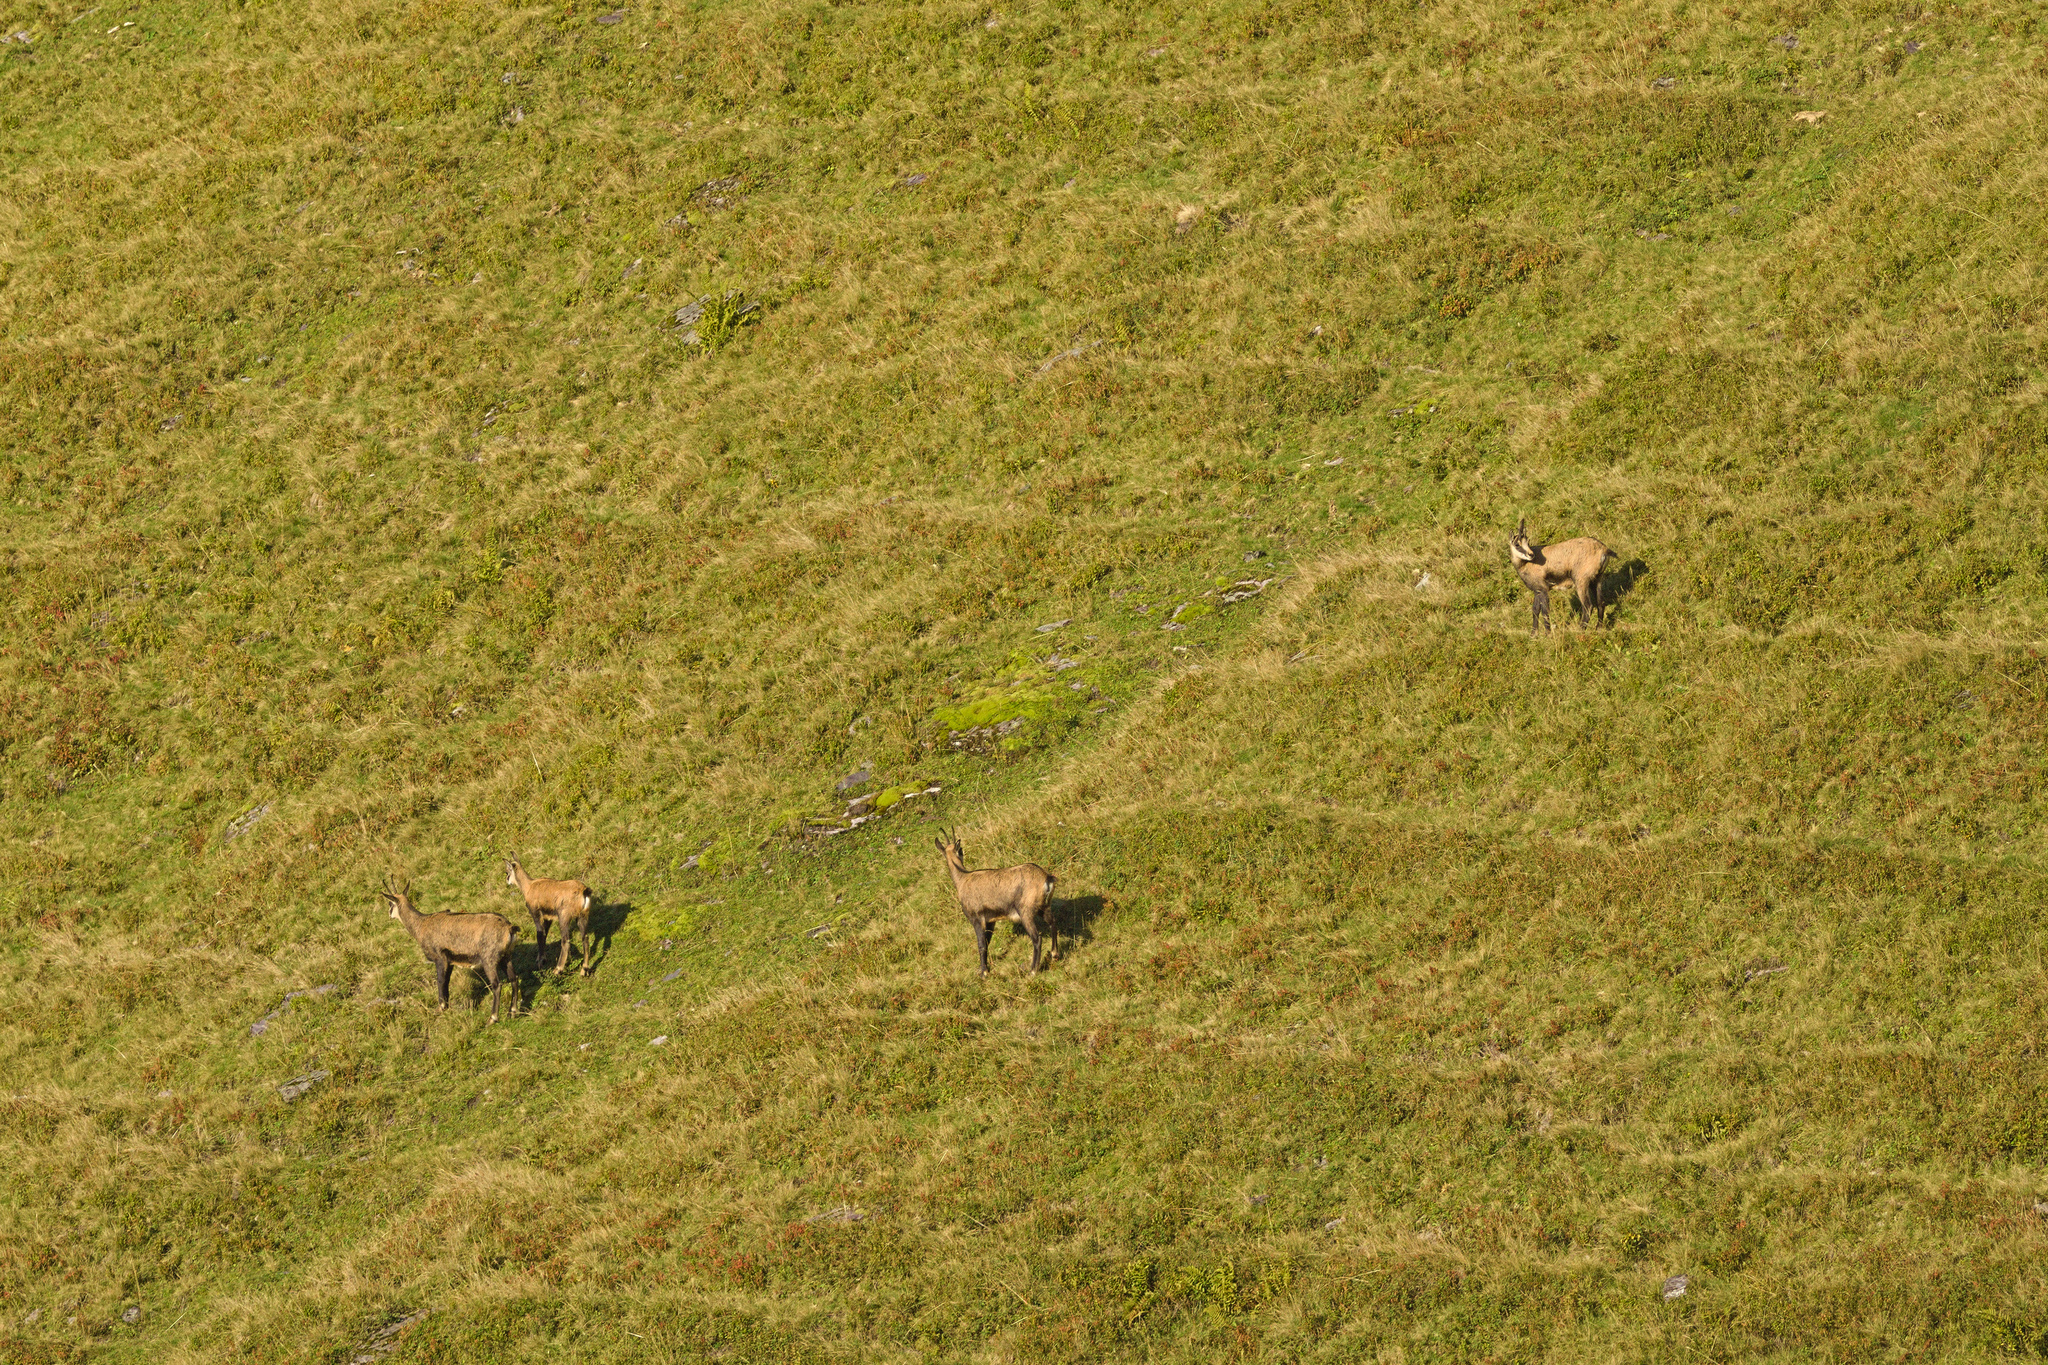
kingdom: Animalia
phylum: Chordata
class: Mammalia
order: Artiodactyla
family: Bovidae
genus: Rupicapra
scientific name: Rupicapra rupicapra
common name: Chamois
